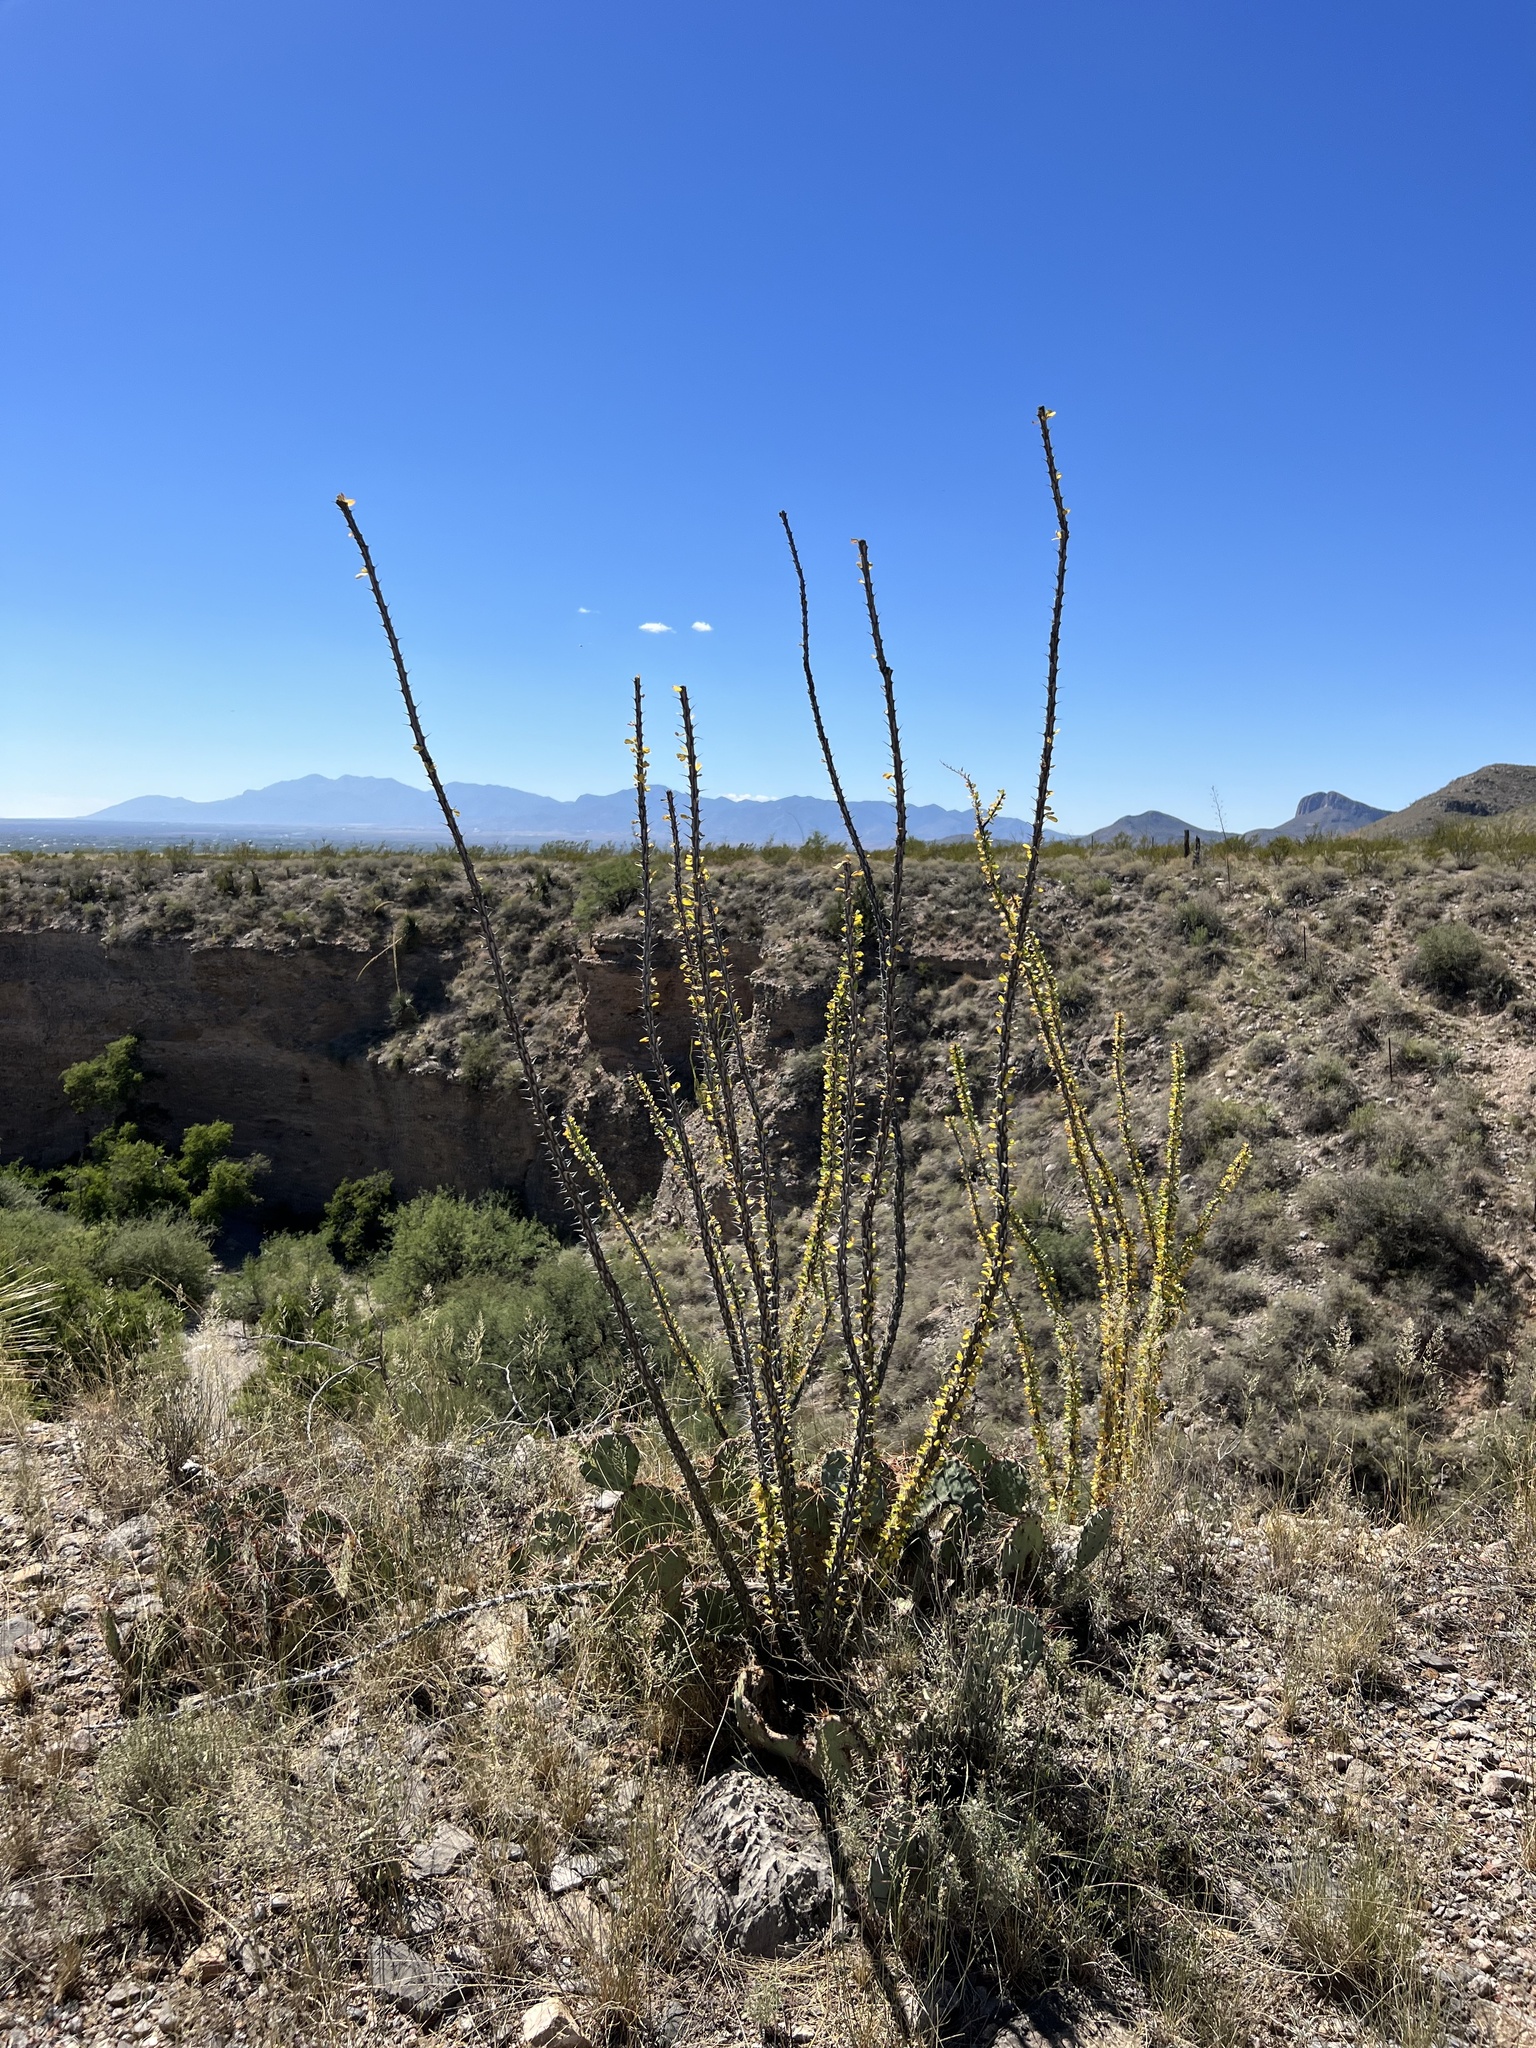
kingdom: Plantae
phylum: Tracheophyta
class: Magnoliopsida
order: Ericales
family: Fouquieriaceae
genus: Fouquieria
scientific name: Fouquieria splendens
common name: Vine-cactus
